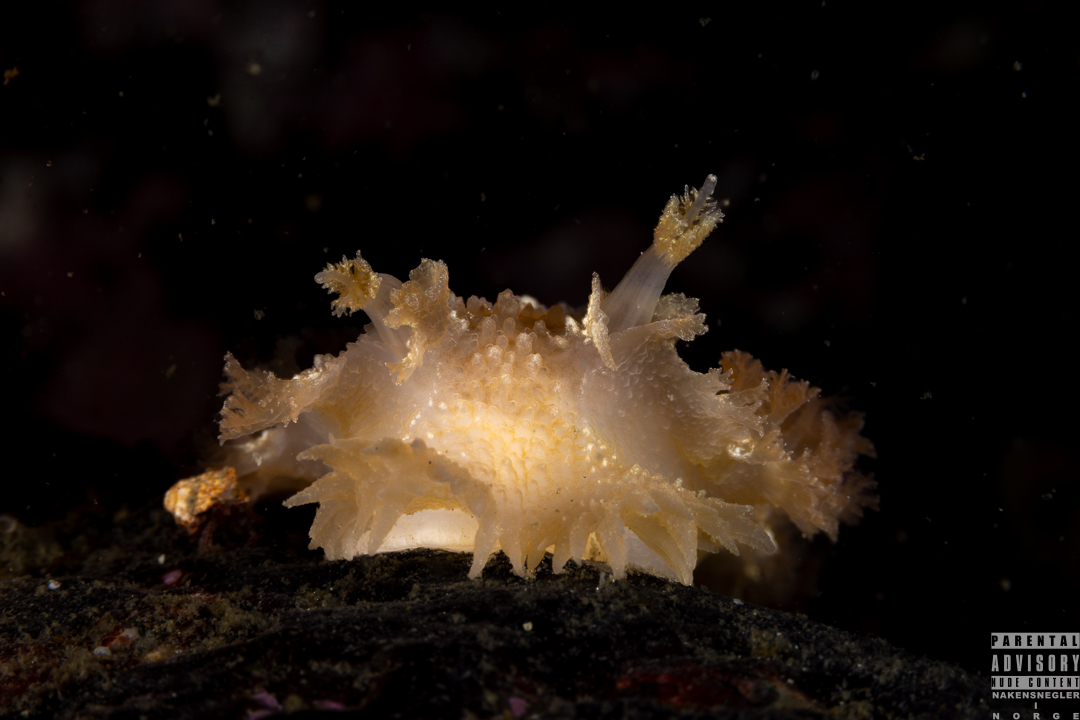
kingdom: Animalia
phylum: Mollusca
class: Gastropoda
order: Nudibranchia
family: Tritoniidae
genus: Tritonia
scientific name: Tritonia hombergii
